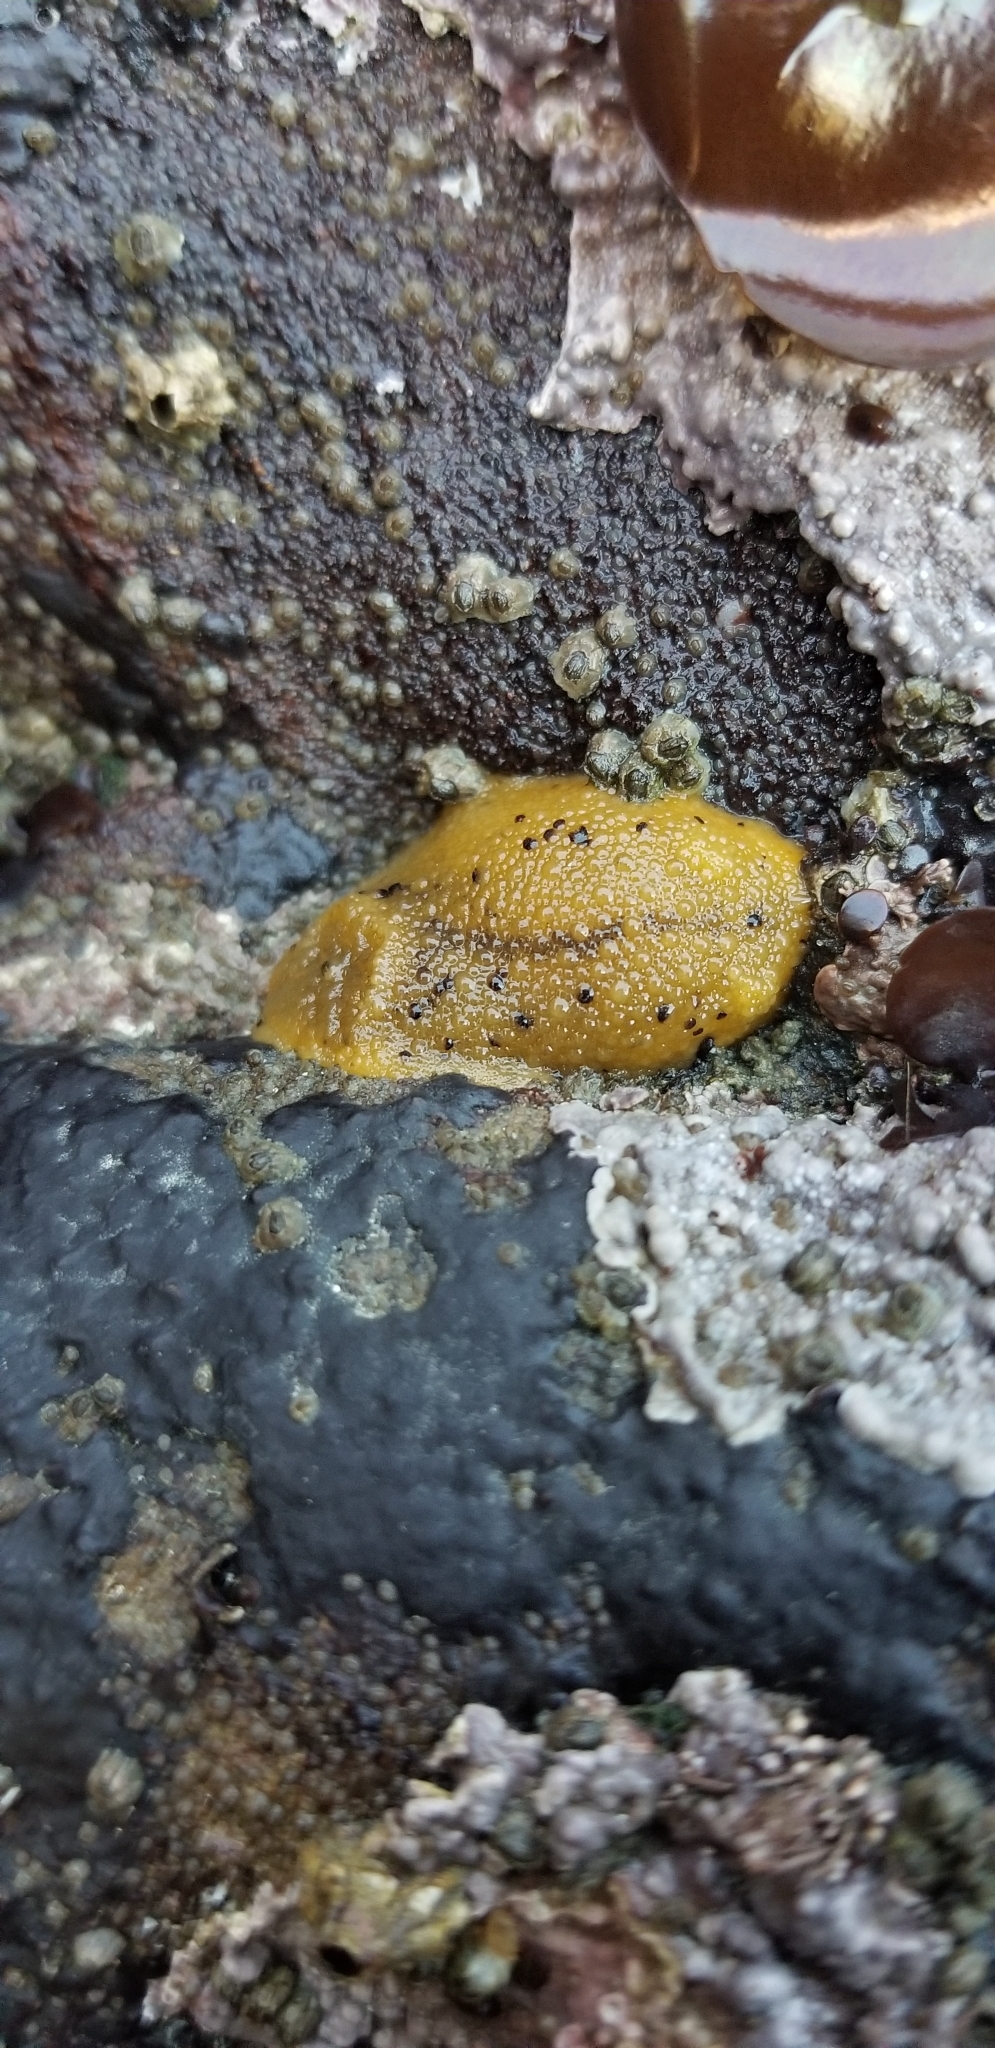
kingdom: Animalia
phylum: Mollusca
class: Gastropoda
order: Nudibranchia
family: Dorididae
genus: Doris
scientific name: Doris montereyensis
